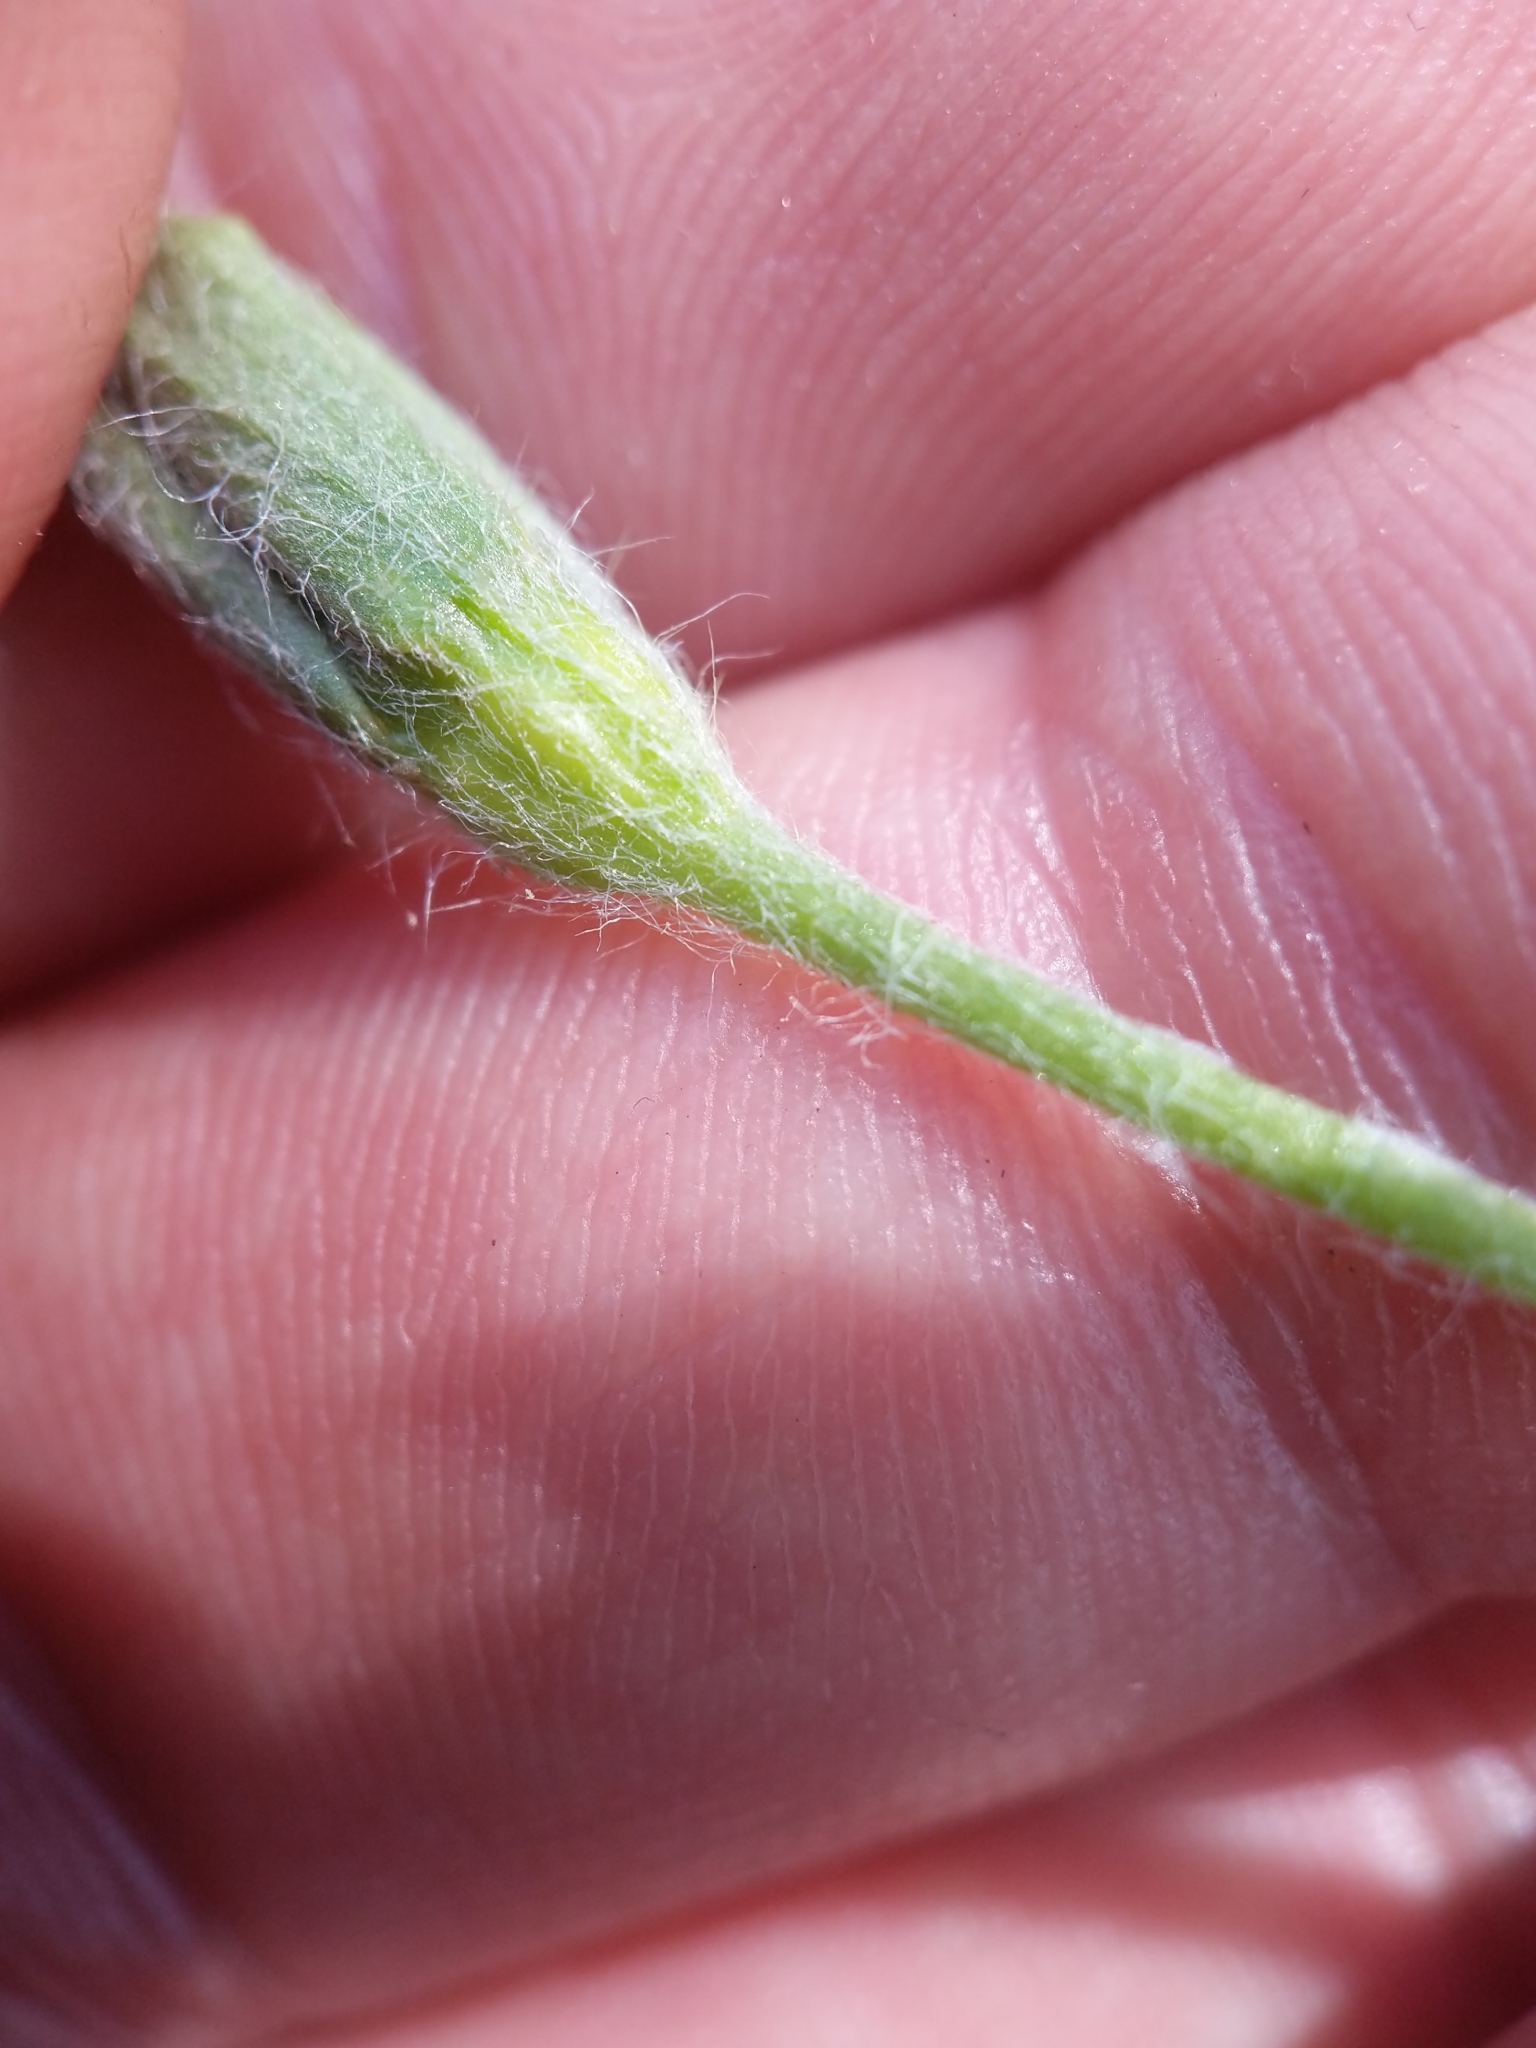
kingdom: Plantae
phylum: Tracheophyta
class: Liliopsida
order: Asparagales
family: Hypoxidaceae
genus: Hypoxis
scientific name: Hypoxis hirsuta
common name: Common goldstar
